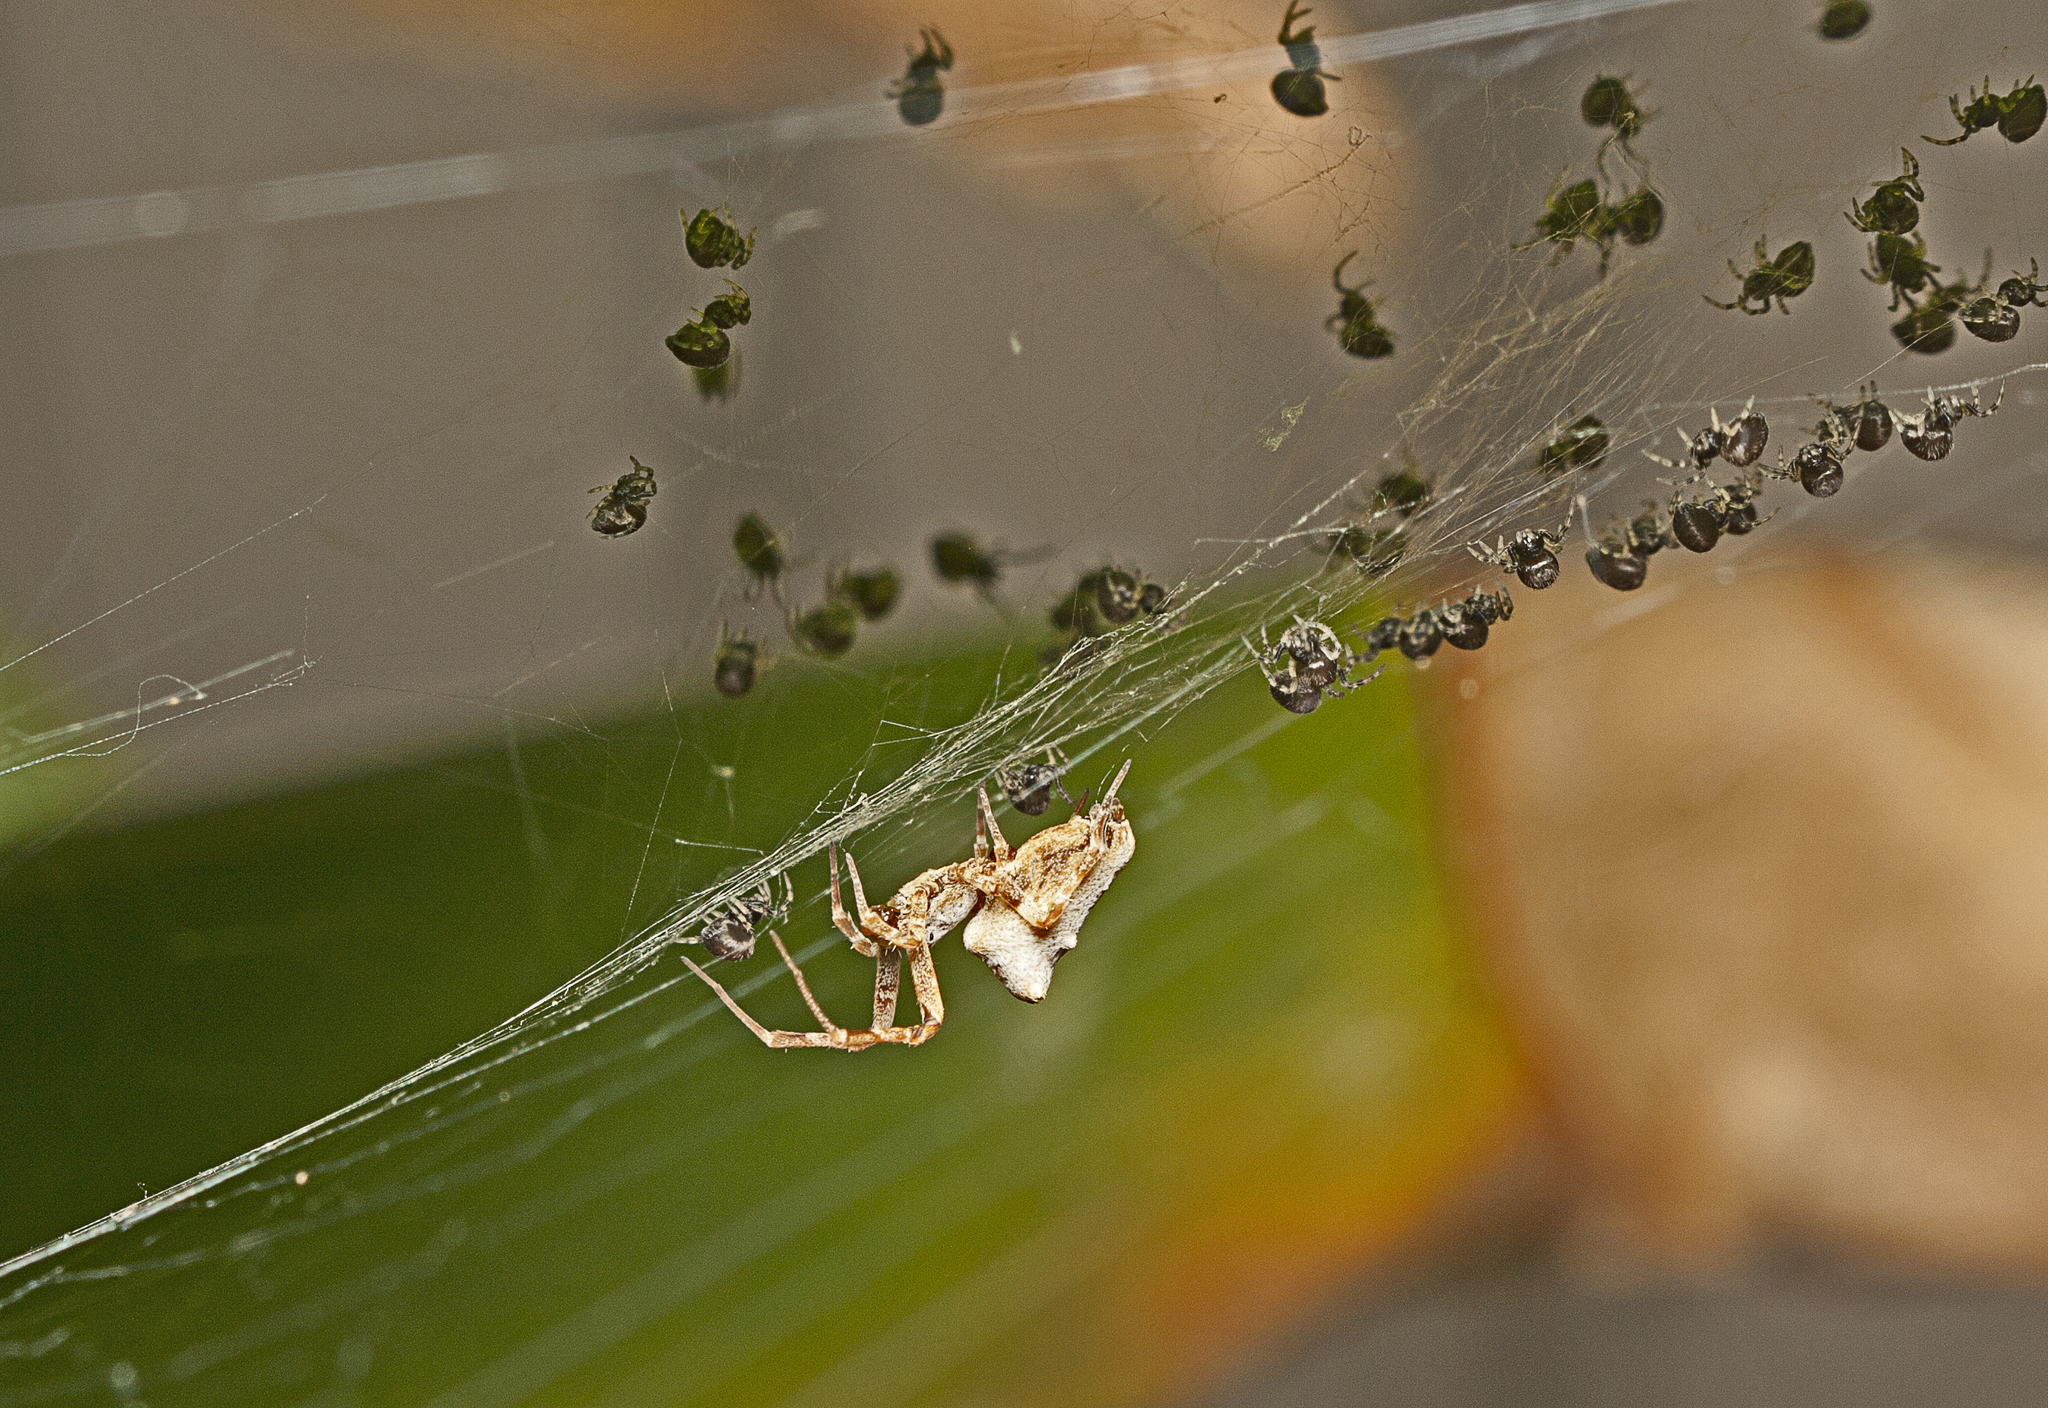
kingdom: Animalia
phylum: Arthropoda
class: Arachnida
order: Araneae
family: Uloboridae
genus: Philoponella
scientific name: Philoponella congregabilis
